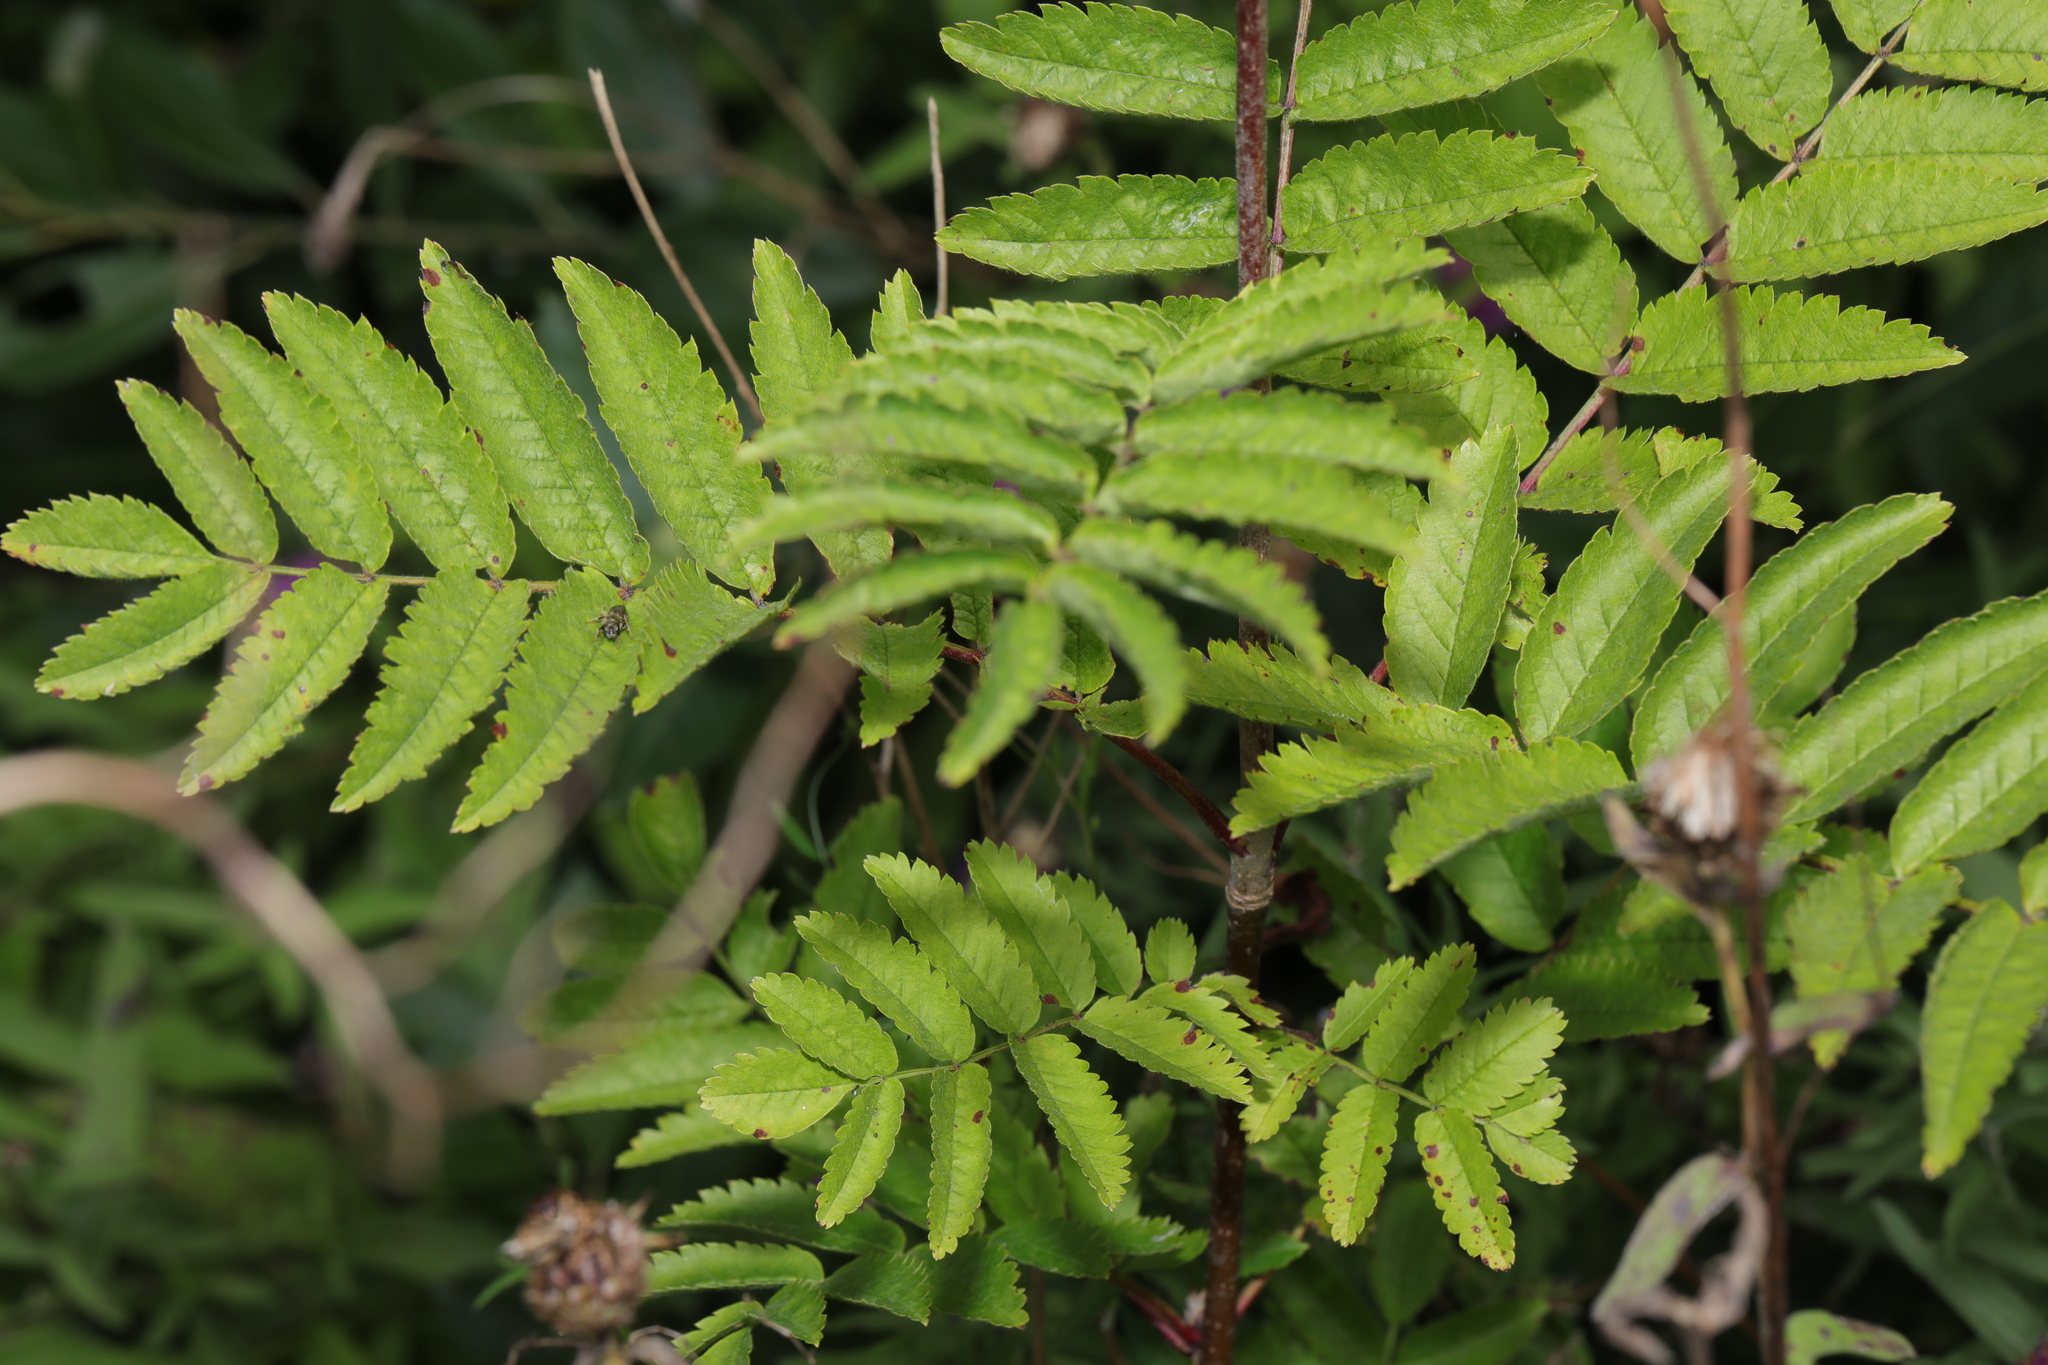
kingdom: Plantae
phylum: Tracheophyta
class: Magnoliopsida
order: Rosales
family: Rosaceae
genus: Sorbus
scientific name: Sorbus aucuparia
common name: Rowan
